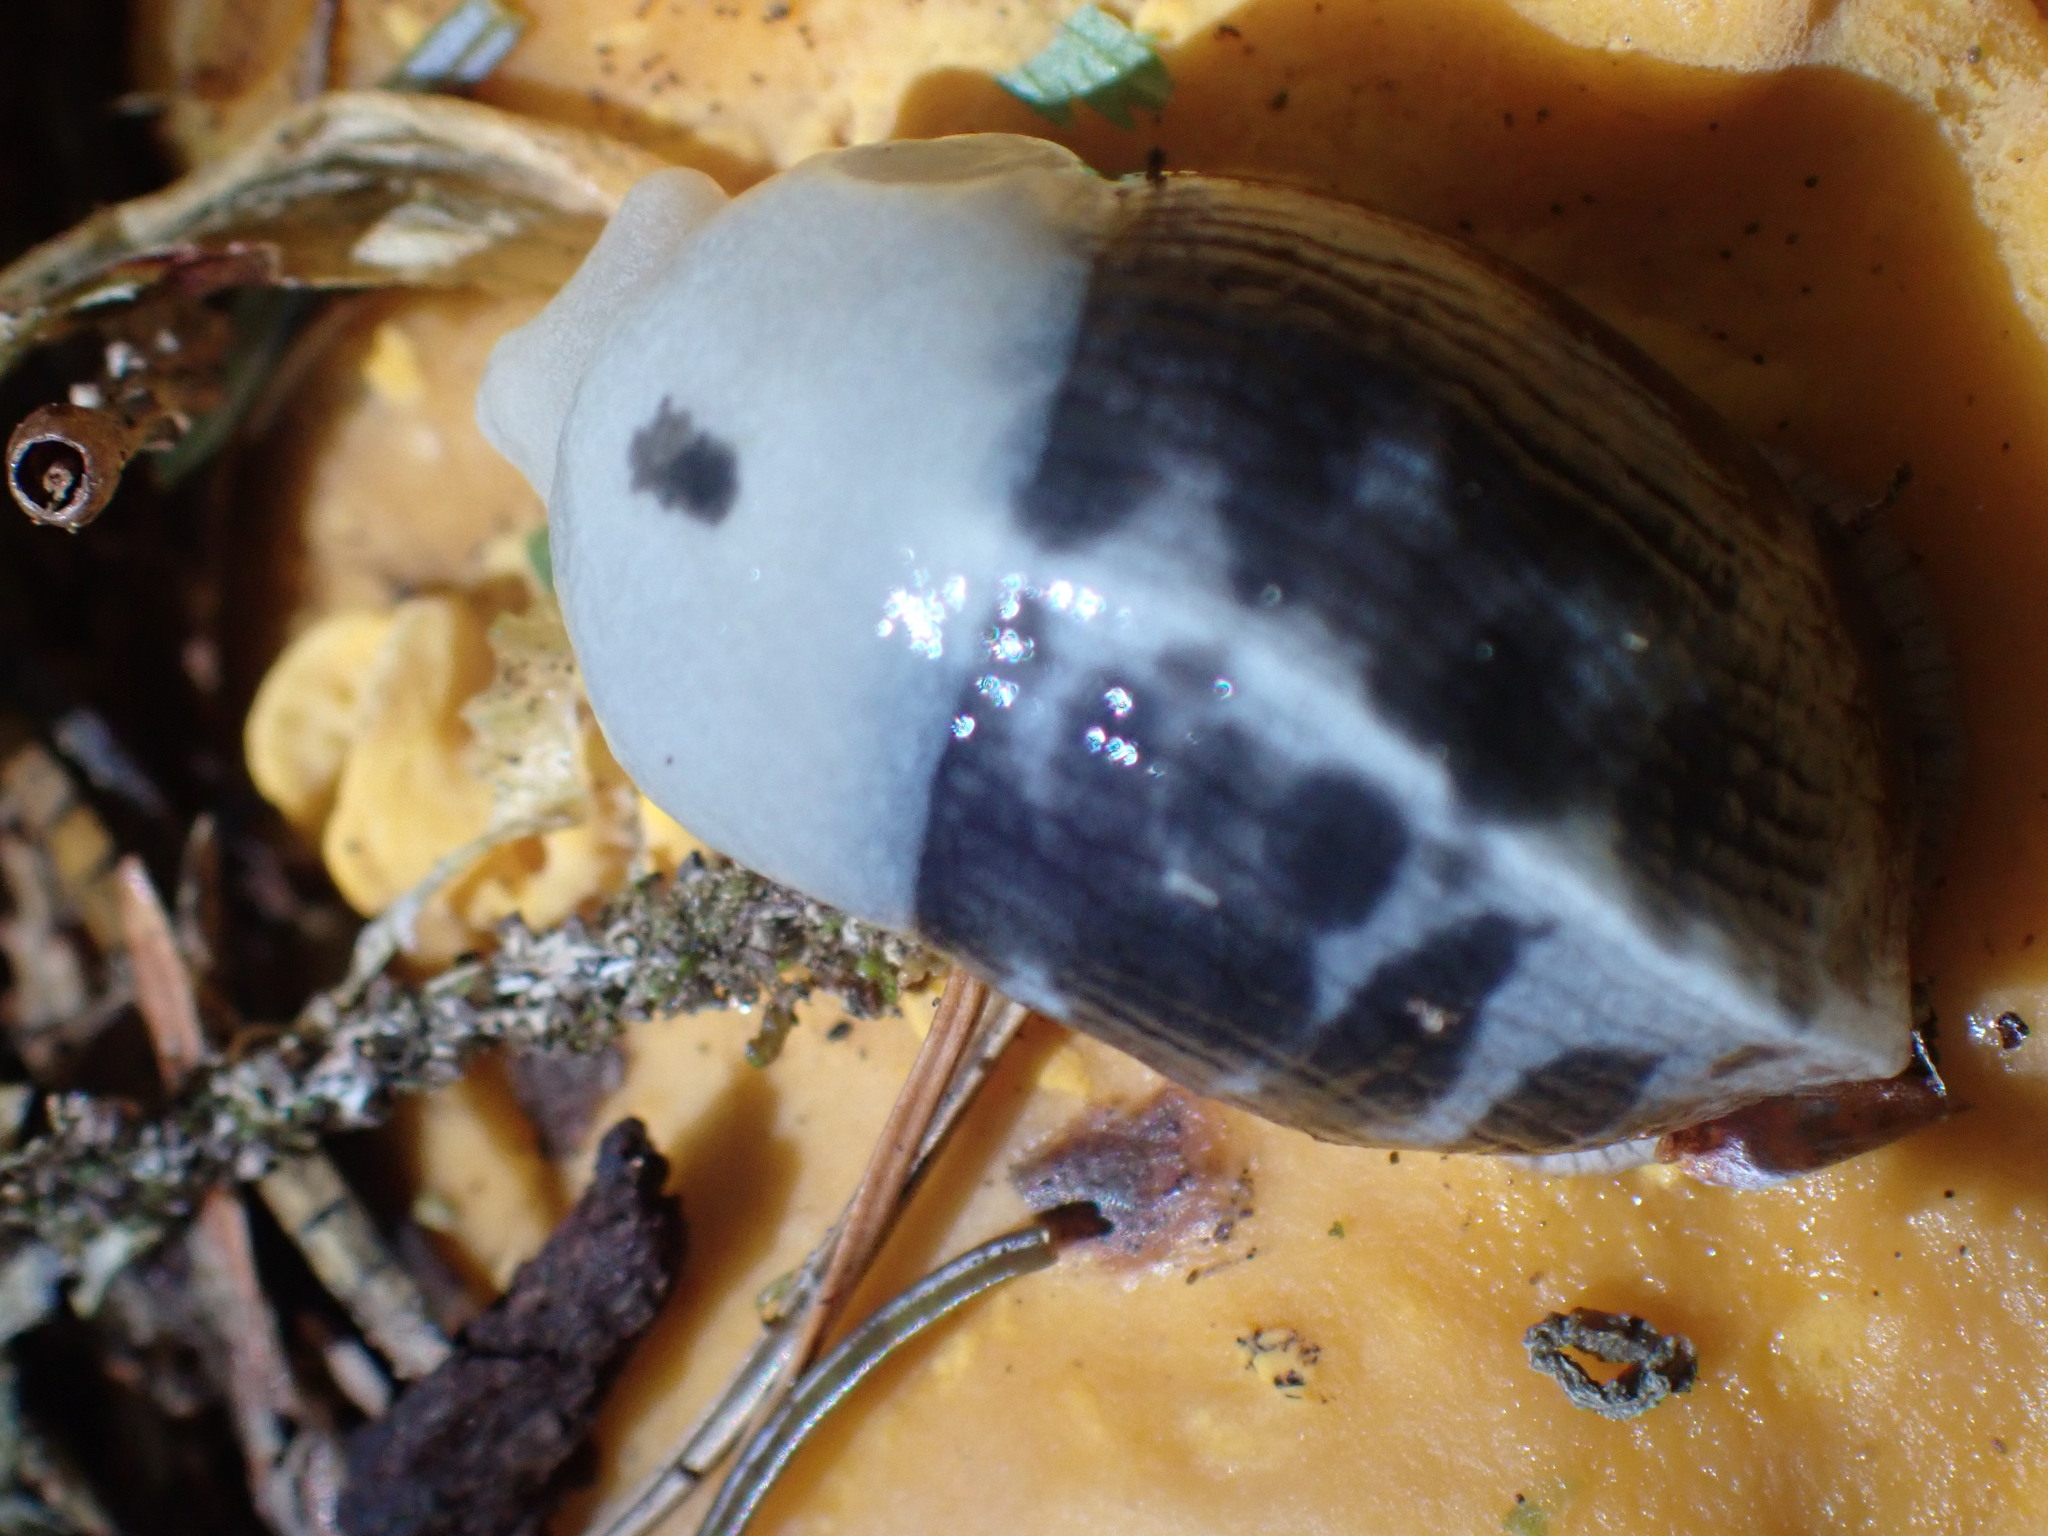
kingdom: Animalia
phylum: Mollusca
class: Gastropoda
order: Stylommatophora
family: Ariolimacidae
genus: Ariolimax
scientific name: Ariolimax columbianus
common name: Pacific banana slug
